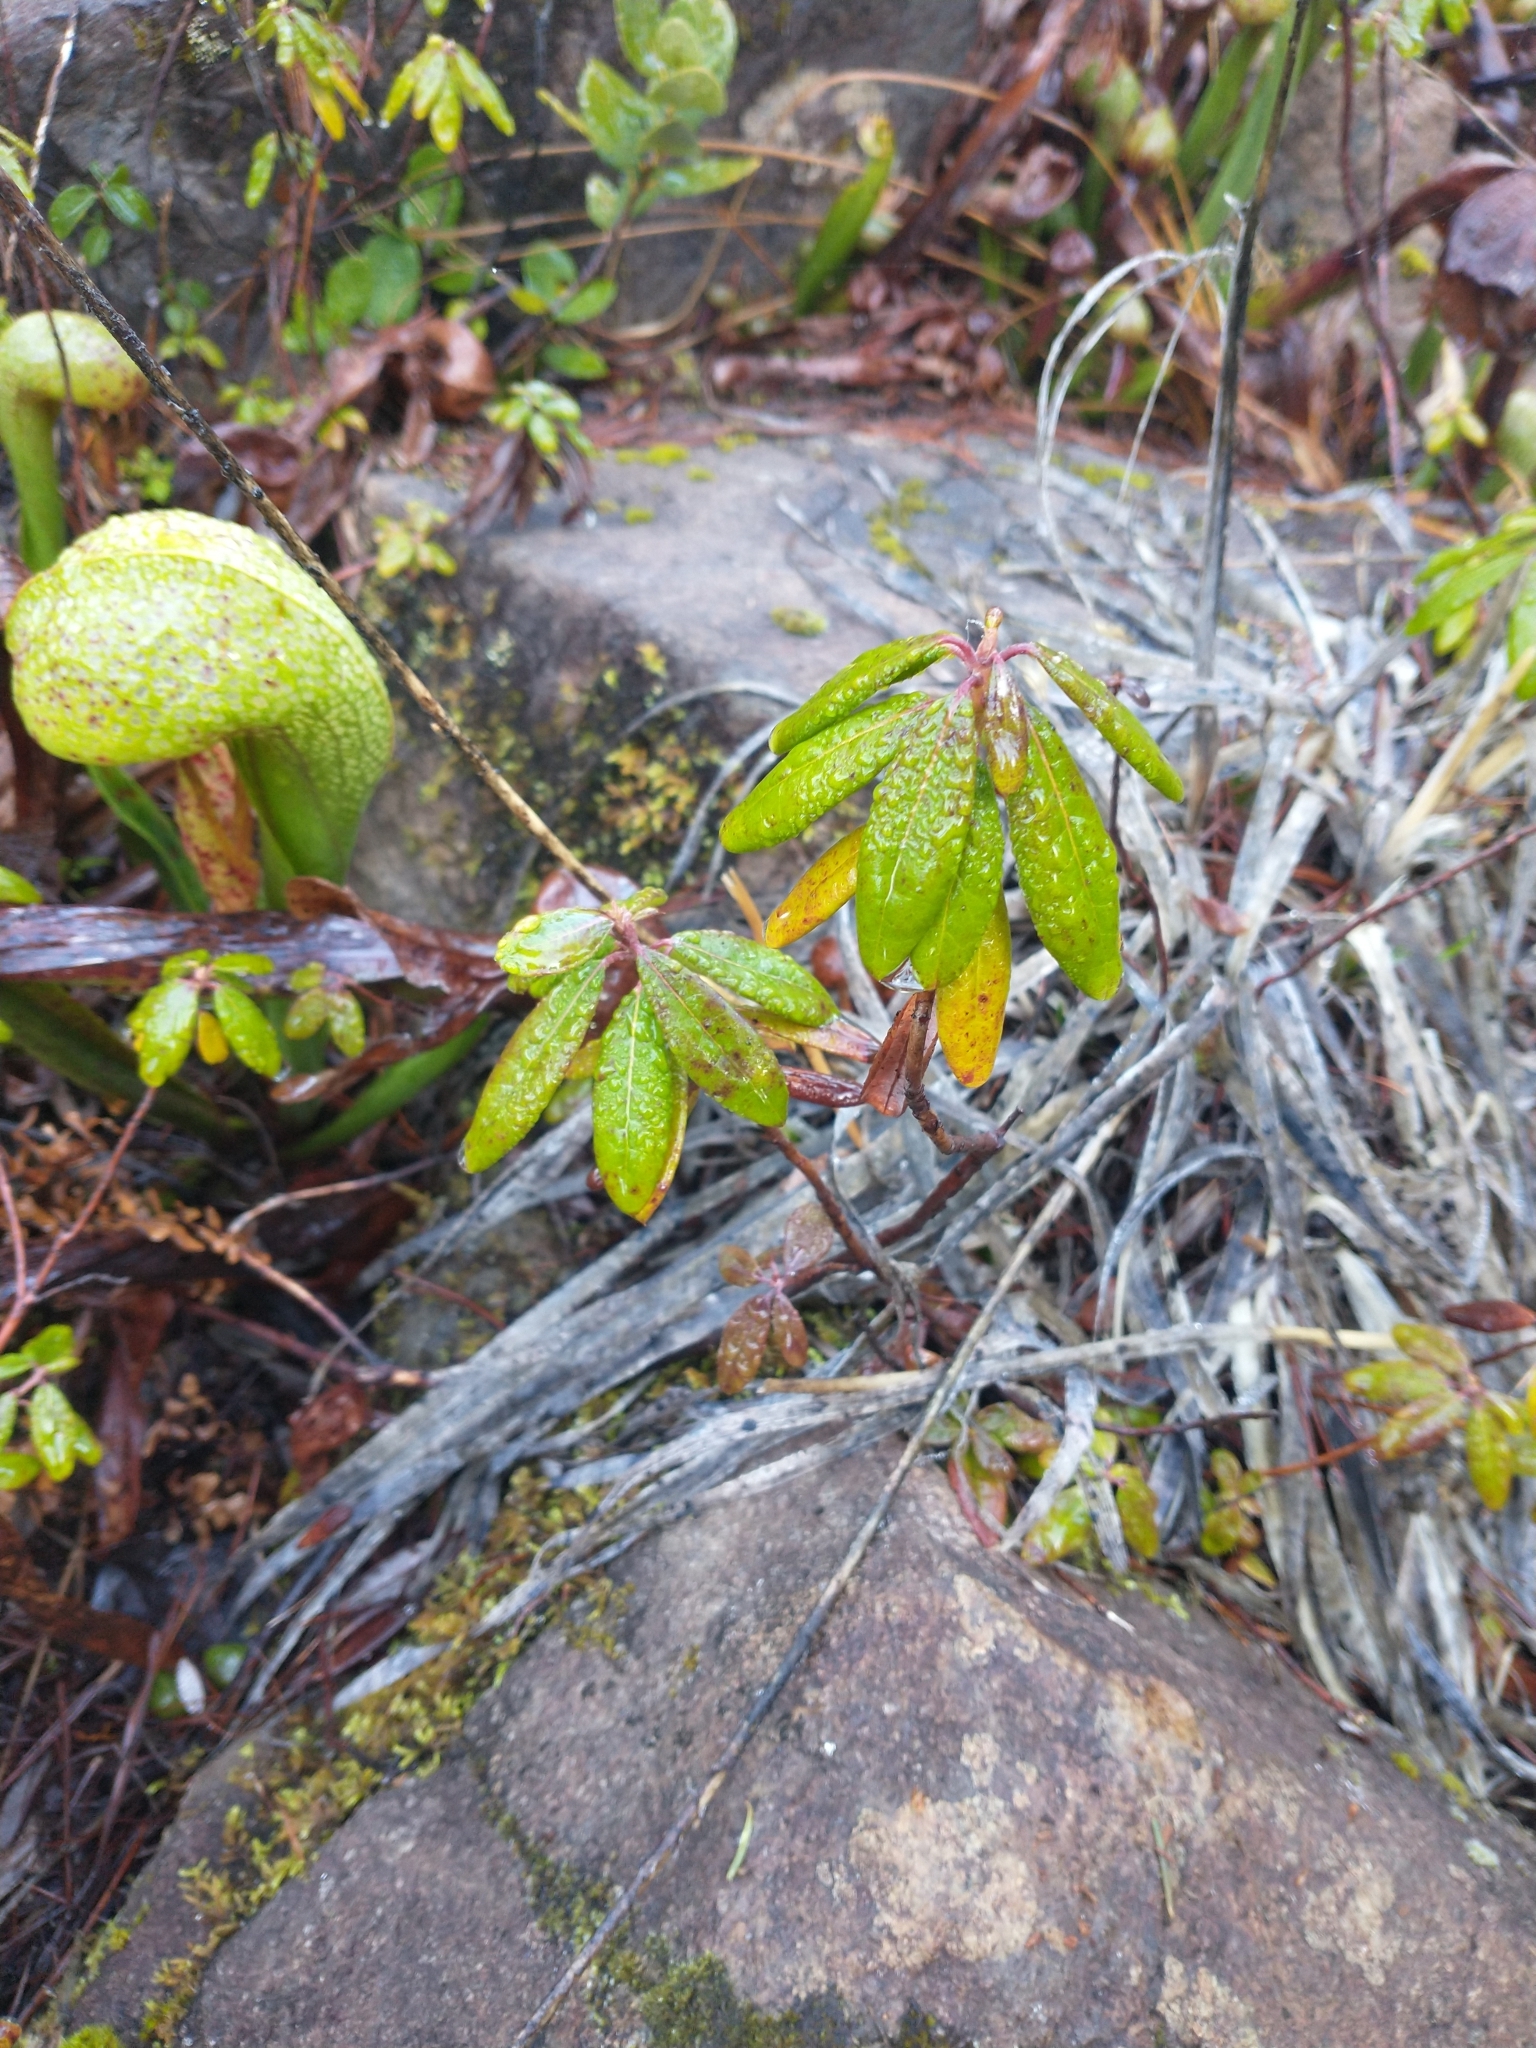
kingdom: Plantae
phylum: Tracheophyta
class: Magnoliopsida
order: Ericales
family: Ericaceae
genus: Rhododendron
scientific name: Rhododendron columbianum
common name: Western labrador tea
